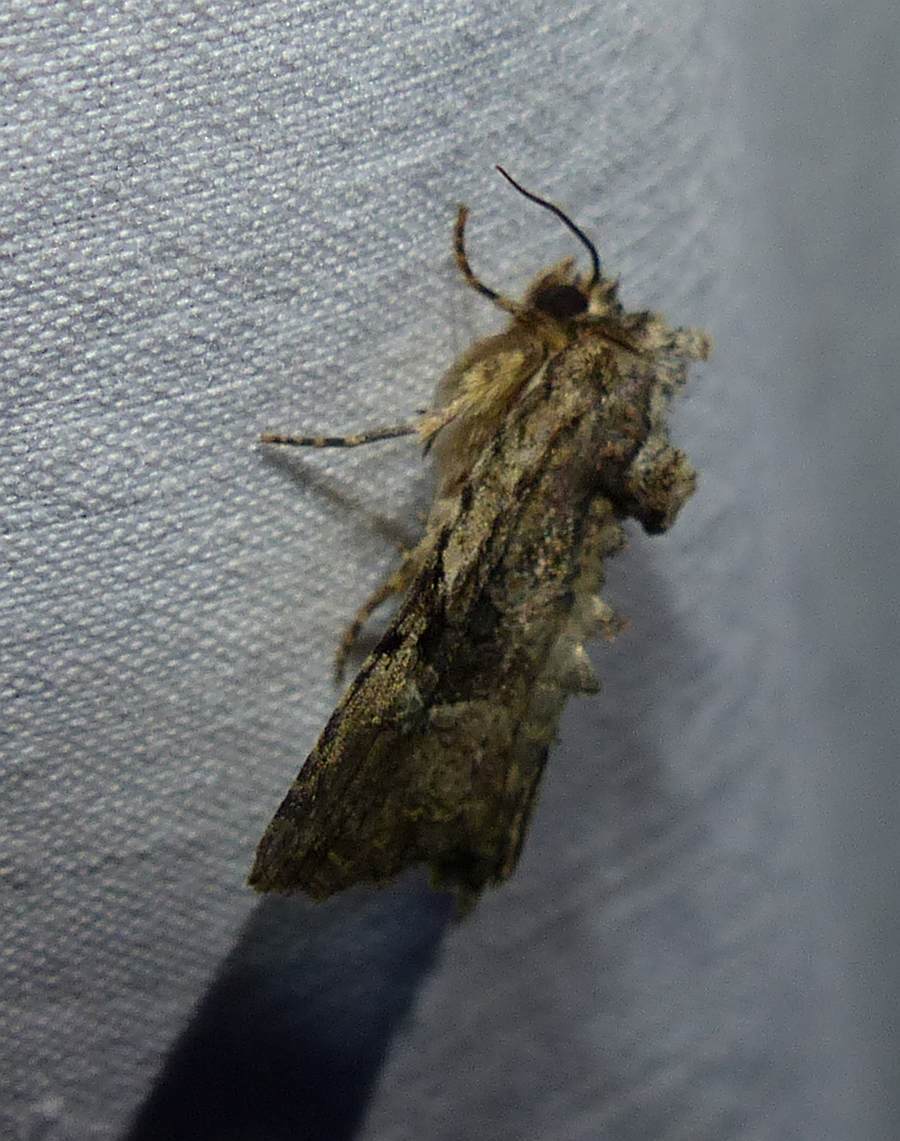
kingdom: Animalia
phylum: Arthropoda
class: Insecta
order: Lepidoptera
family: Noctuidae
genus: Oligia
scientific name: Oligia modica
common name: Black-banded brocade
